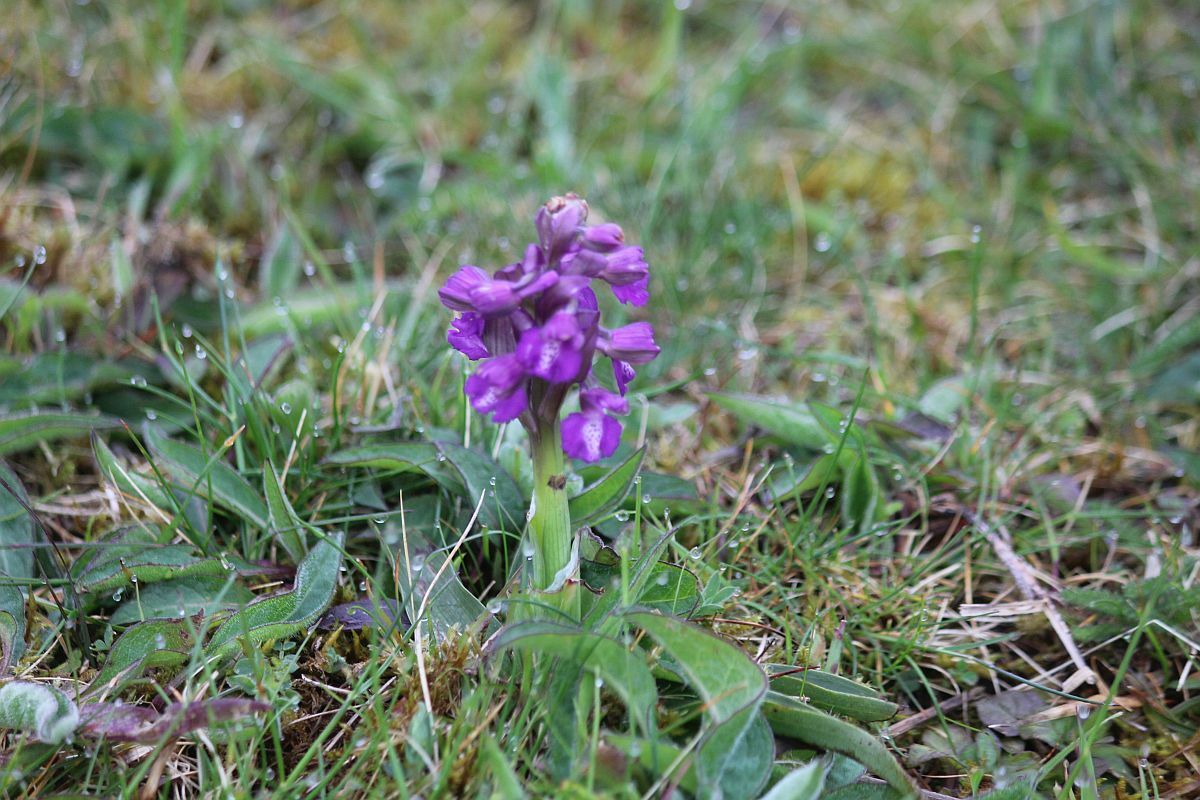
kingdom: Plantae
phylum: Tracheophyta
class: Liliopsida
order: Asparagales
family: Orchidaceae
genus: Anacamptis
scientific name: Anacamptis morio
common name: Green-winged orchid
